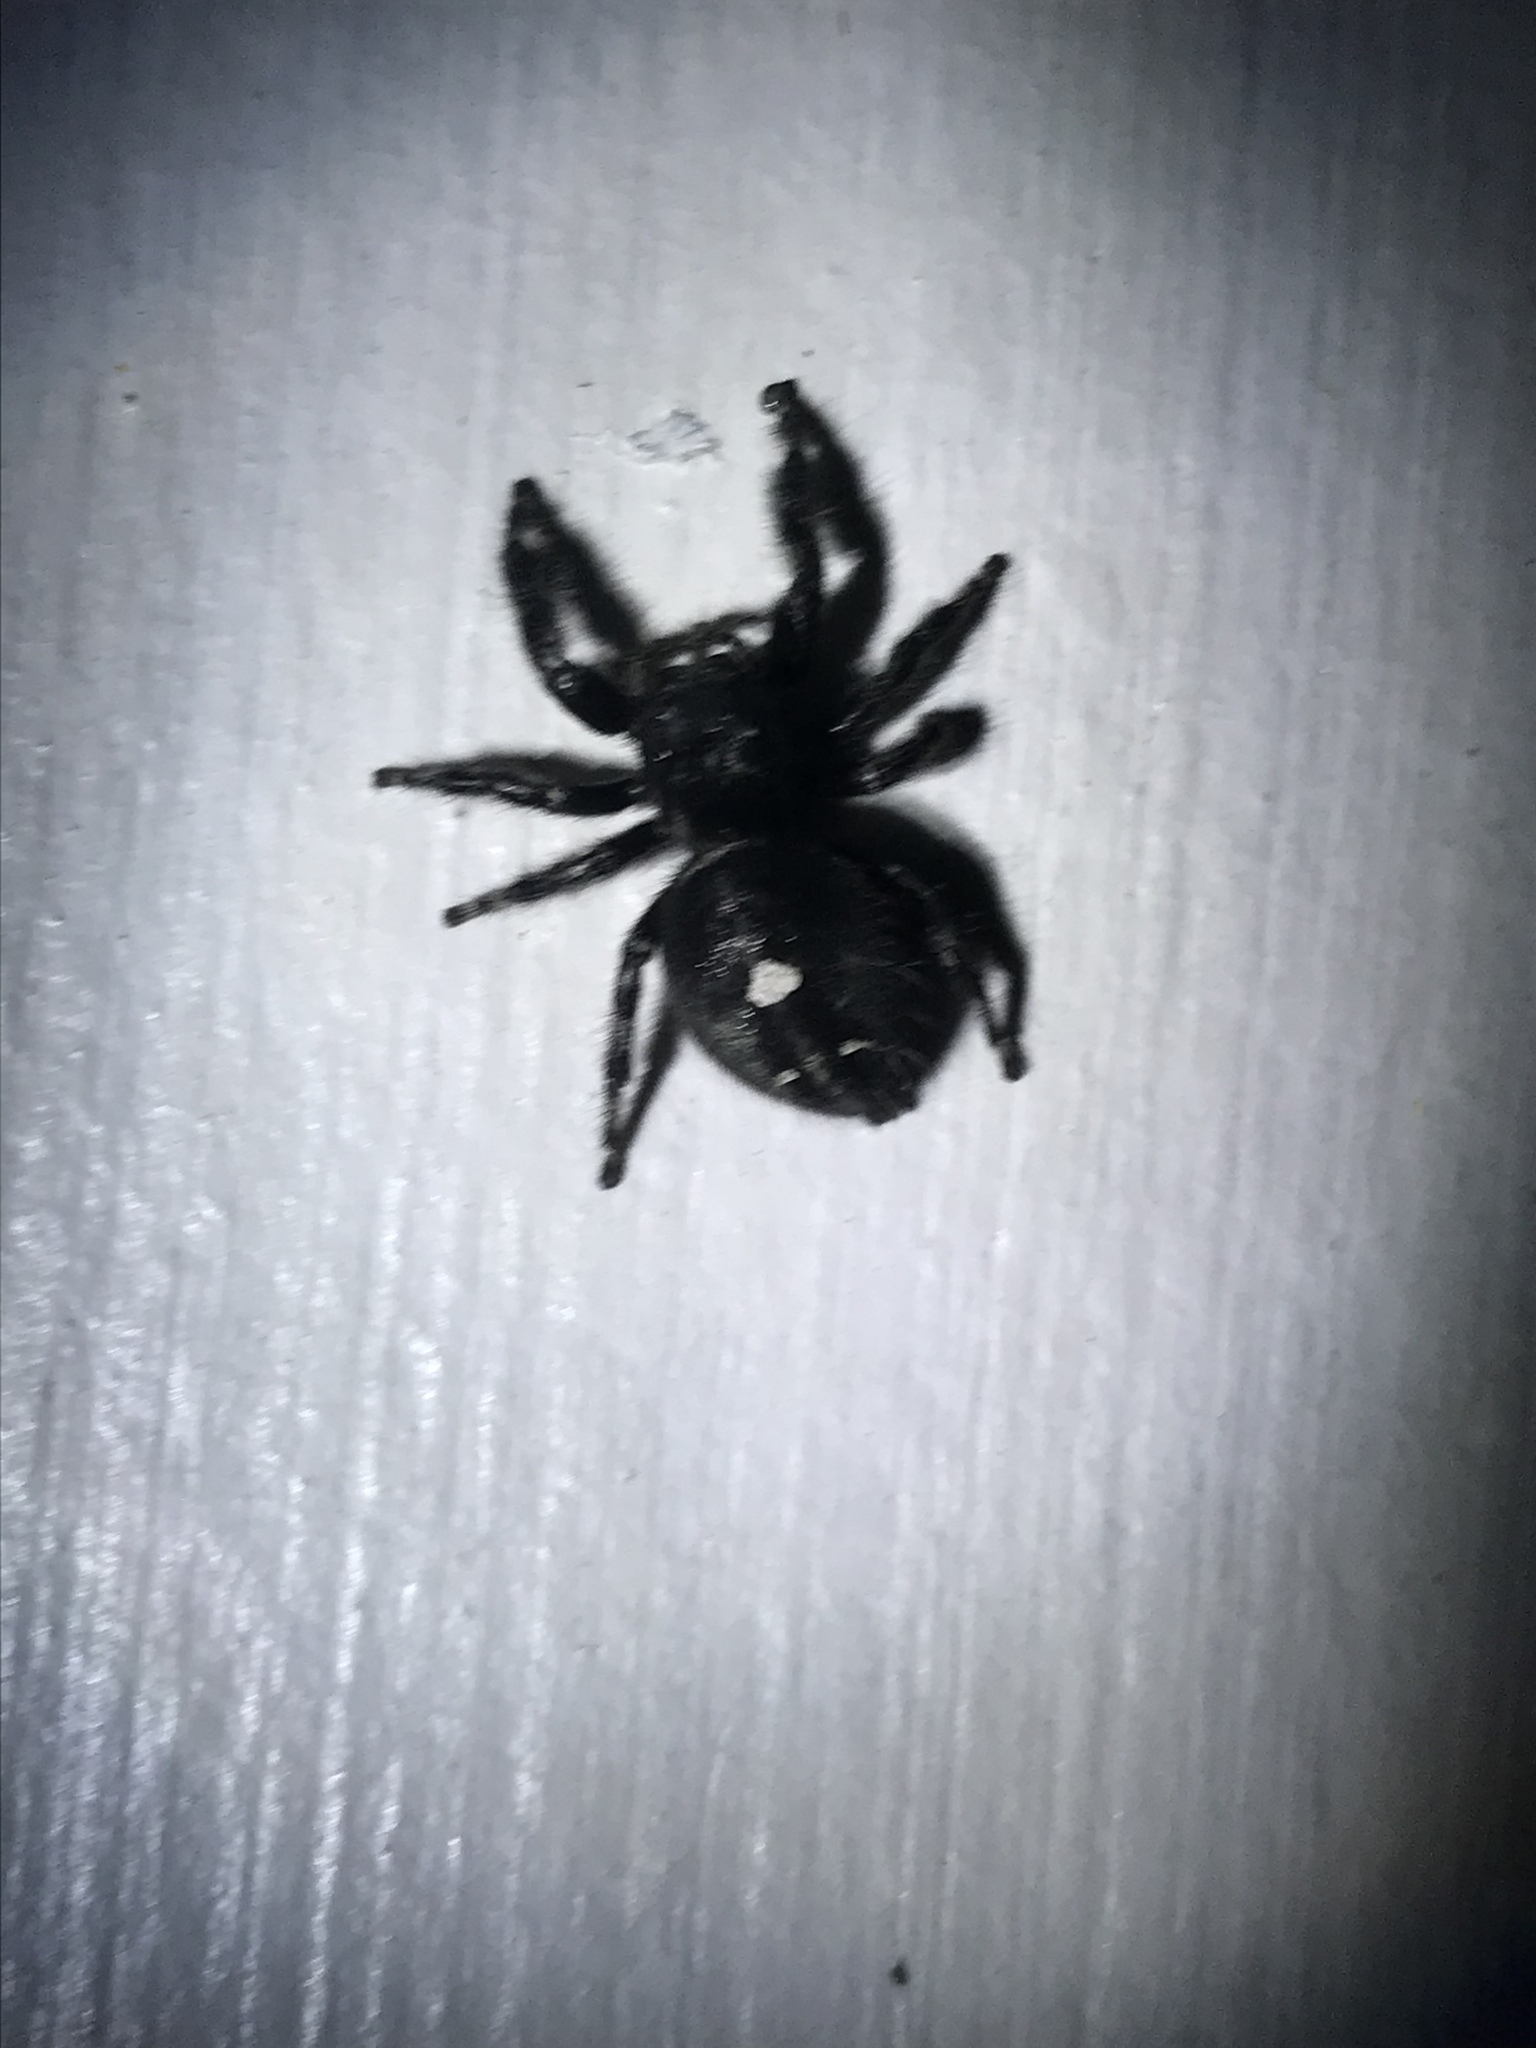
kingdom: Animalia
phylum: Arthropoda
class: Arachnida
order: Araneae
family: Salticidae
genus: Phidippus
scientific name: Phidippus audax
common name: Bold jumper
